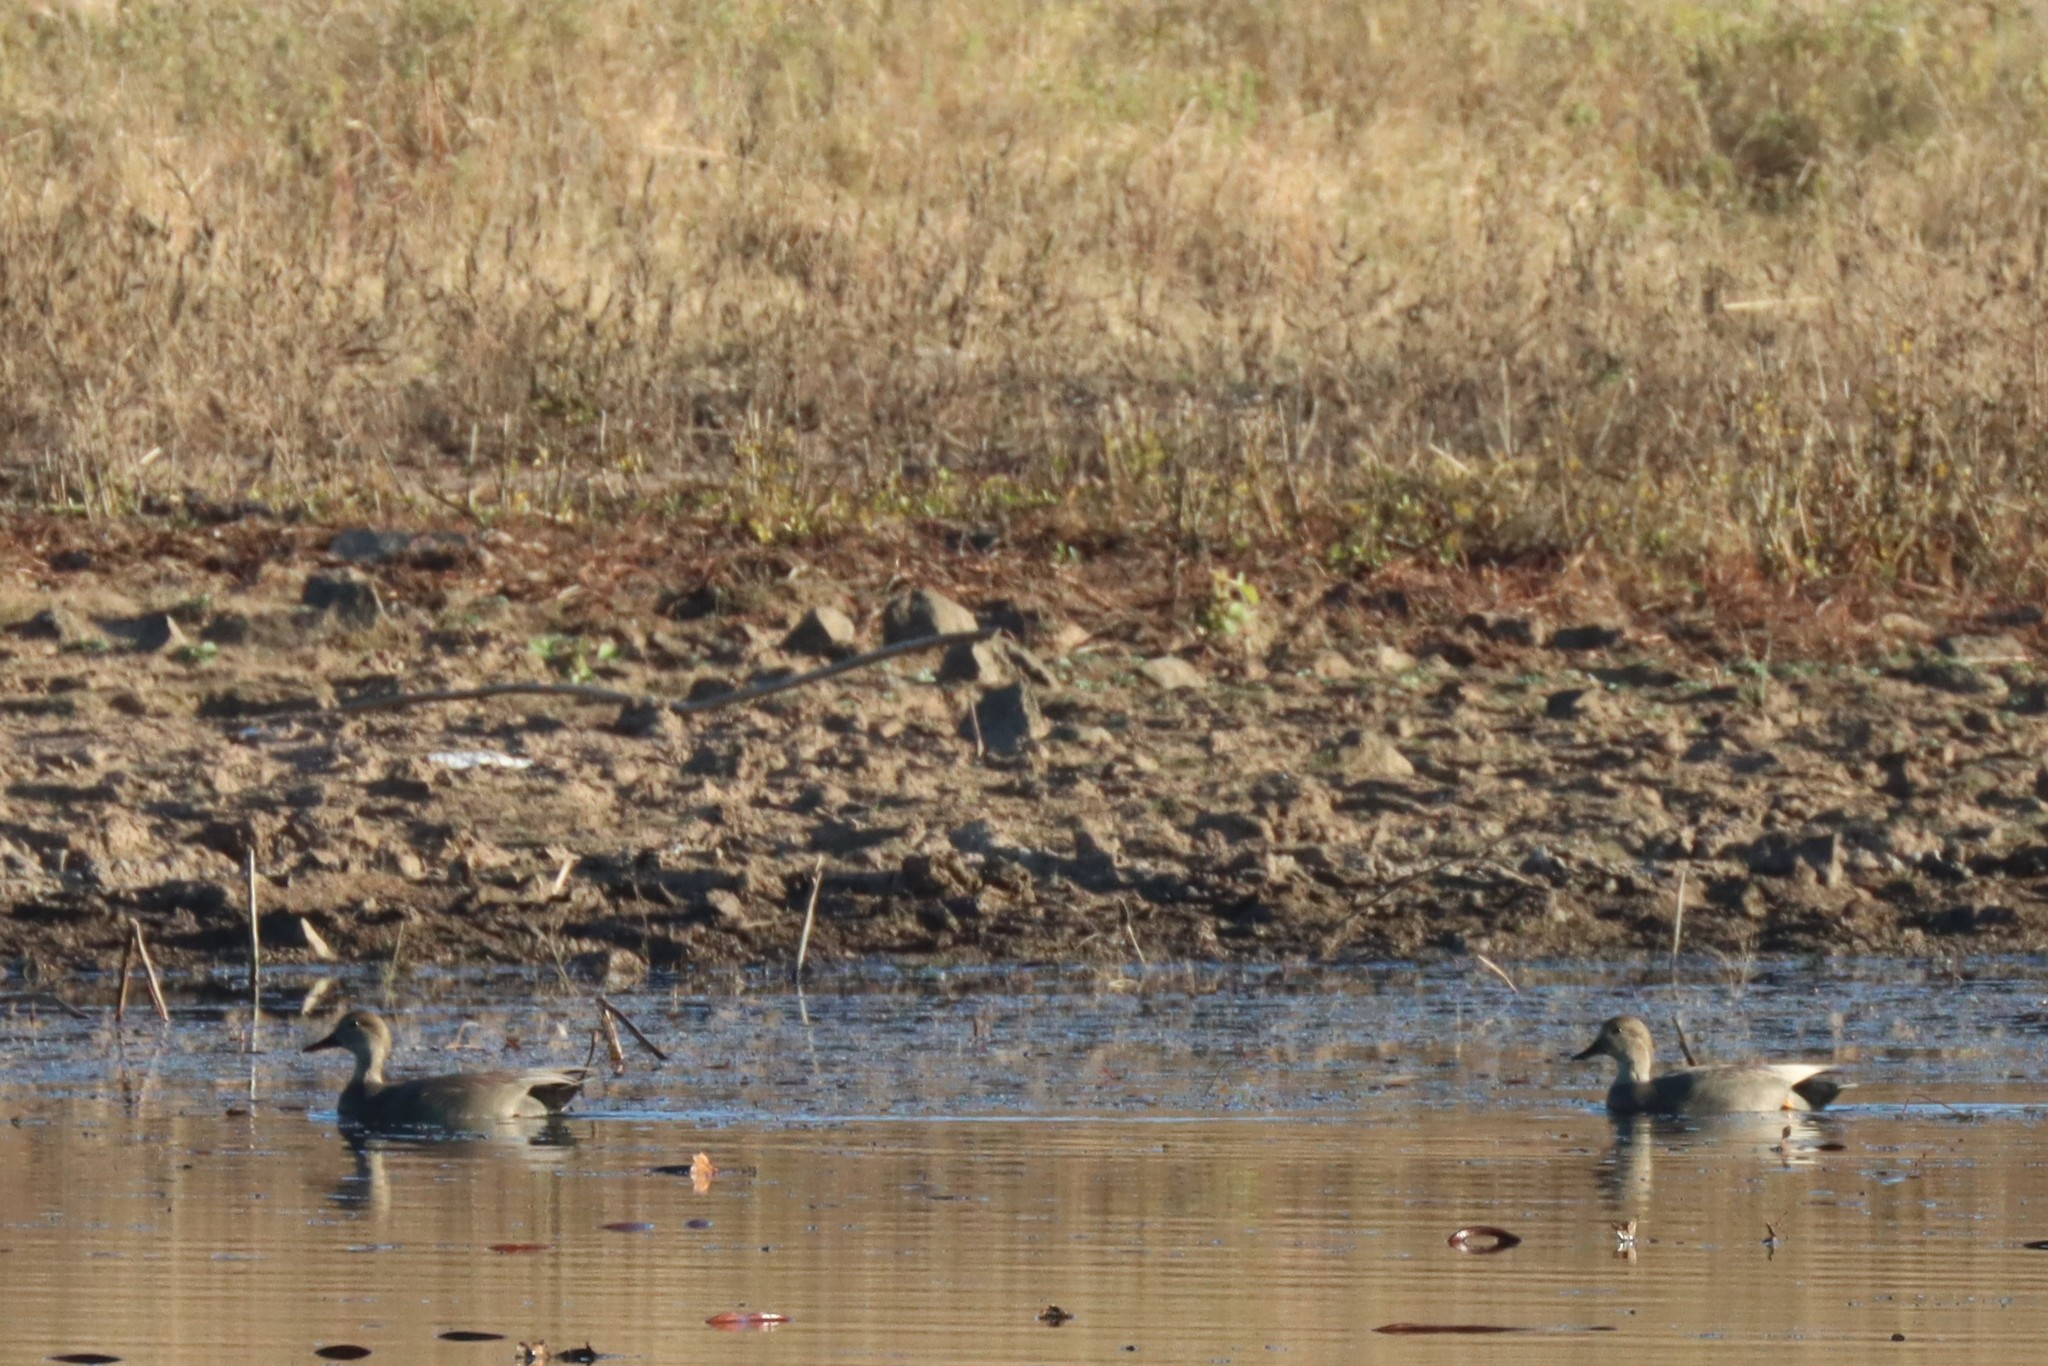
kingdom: Animalia
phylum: Chordata
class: Aves
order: Anseriformes
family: Anatidae
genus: Mareca
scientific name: Mareca strepera
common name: Gadwall
